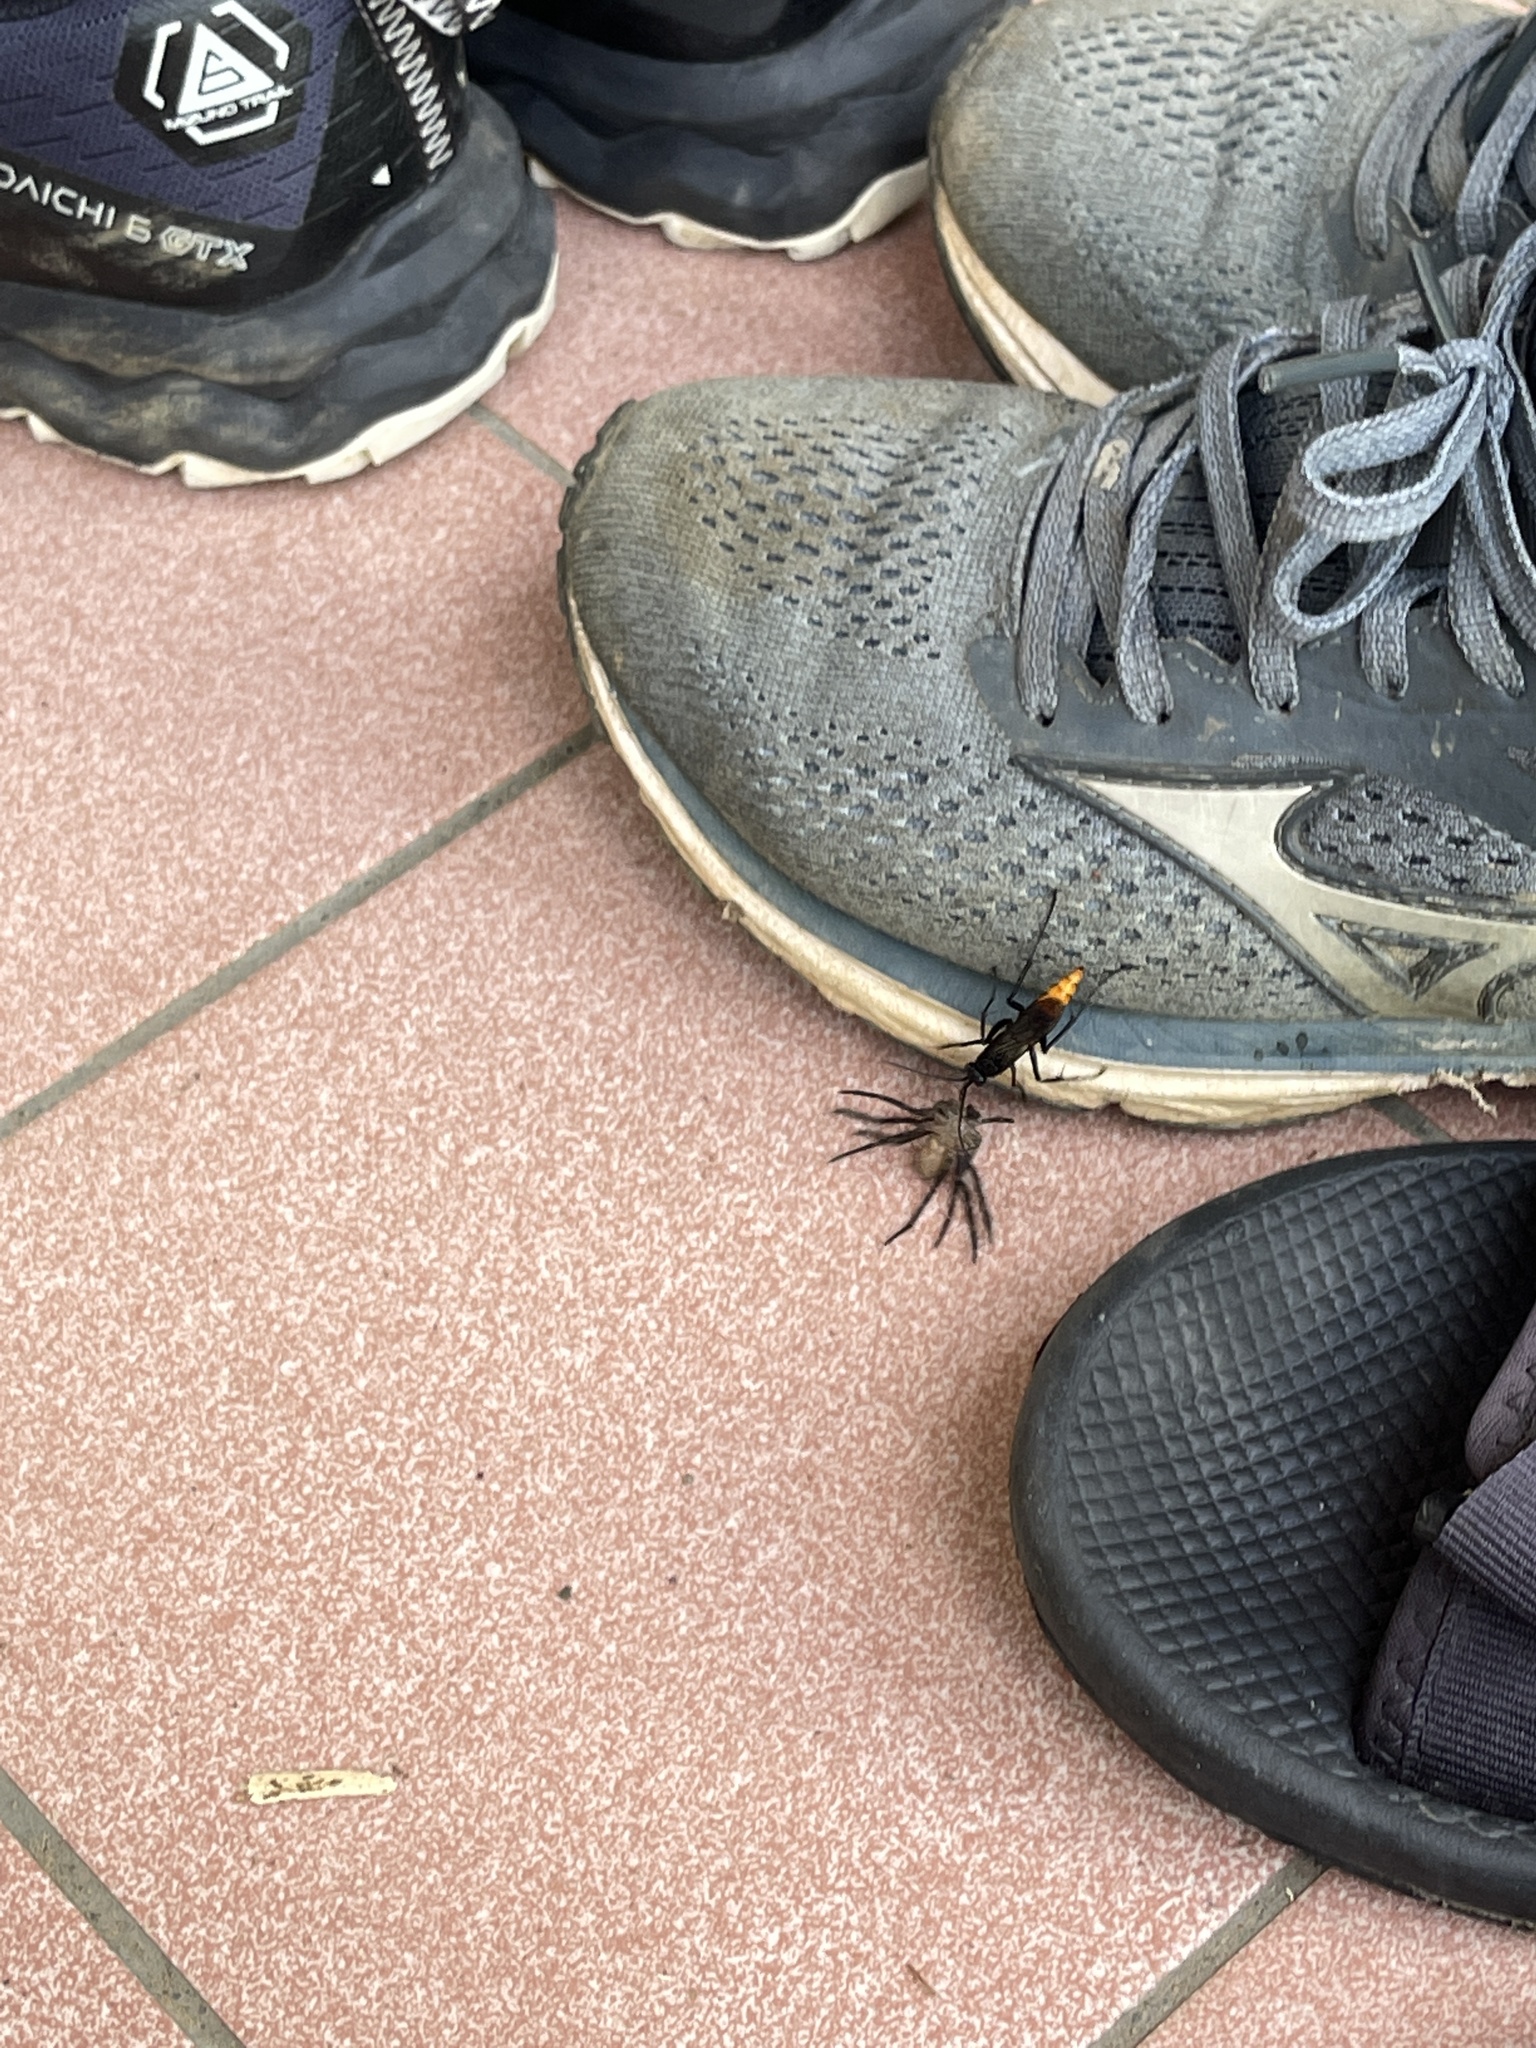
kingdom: Animalia
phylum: Arthropoda
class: Insecta
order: Hymenoptera
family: Pompilidae
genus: Tachypompilus
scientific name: Tachypompilus analis
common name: Spider wasp
